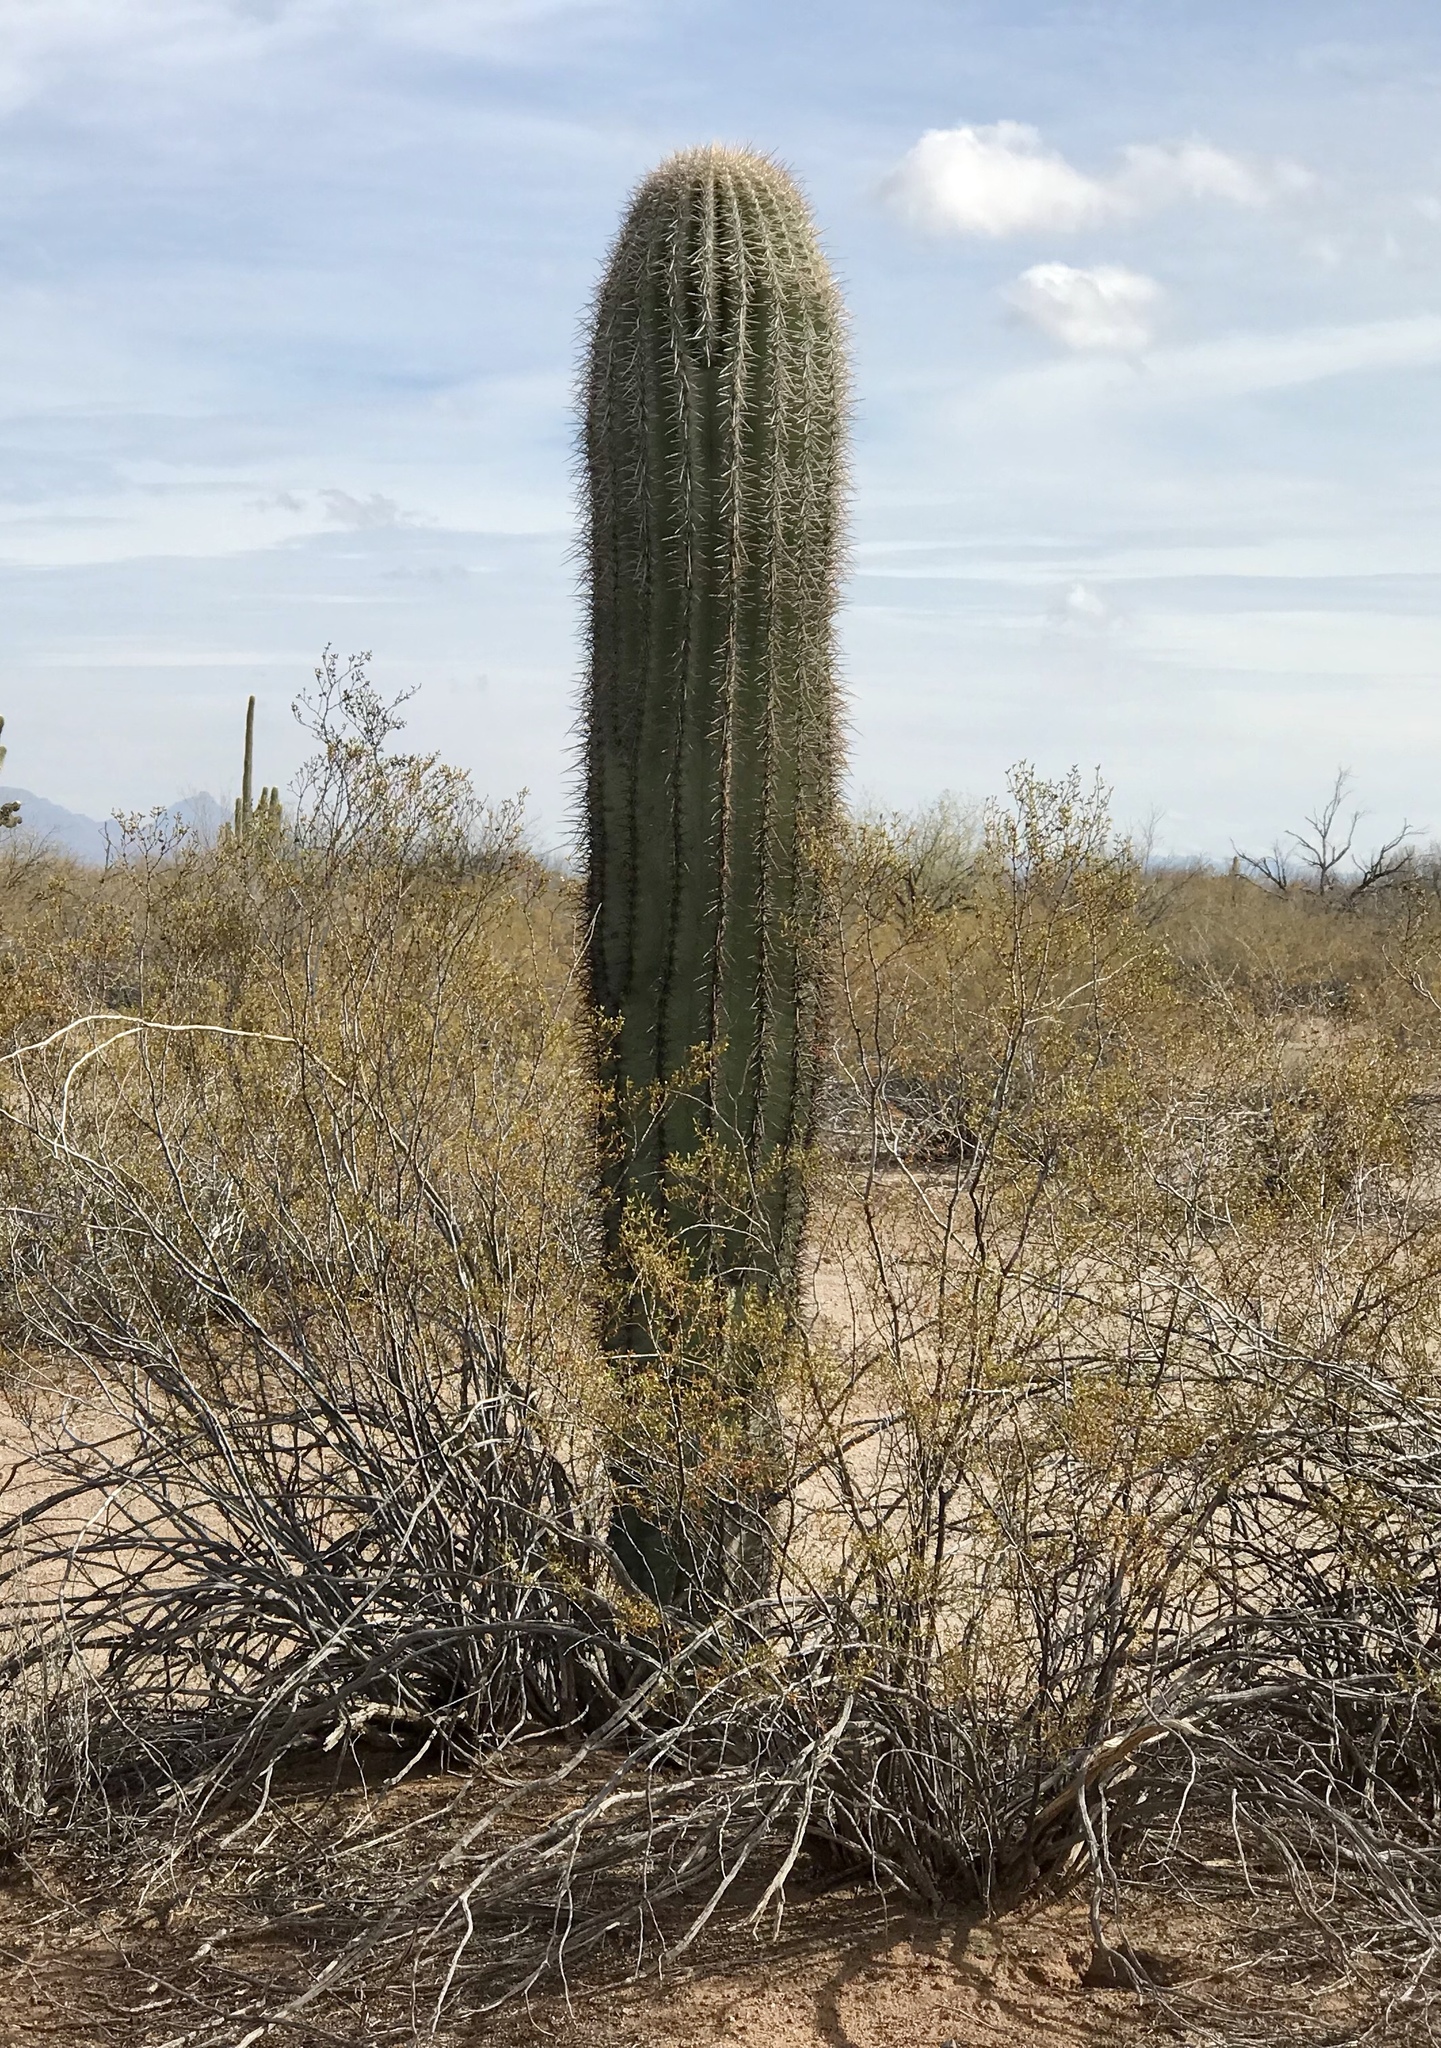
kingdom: Plantae
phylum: Tracheophyta
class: Magnoliopsida
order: Caryophyllales
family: Cactaceae
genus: Carnegiea
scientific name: Carnegiea gigantea
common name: Saguaro
